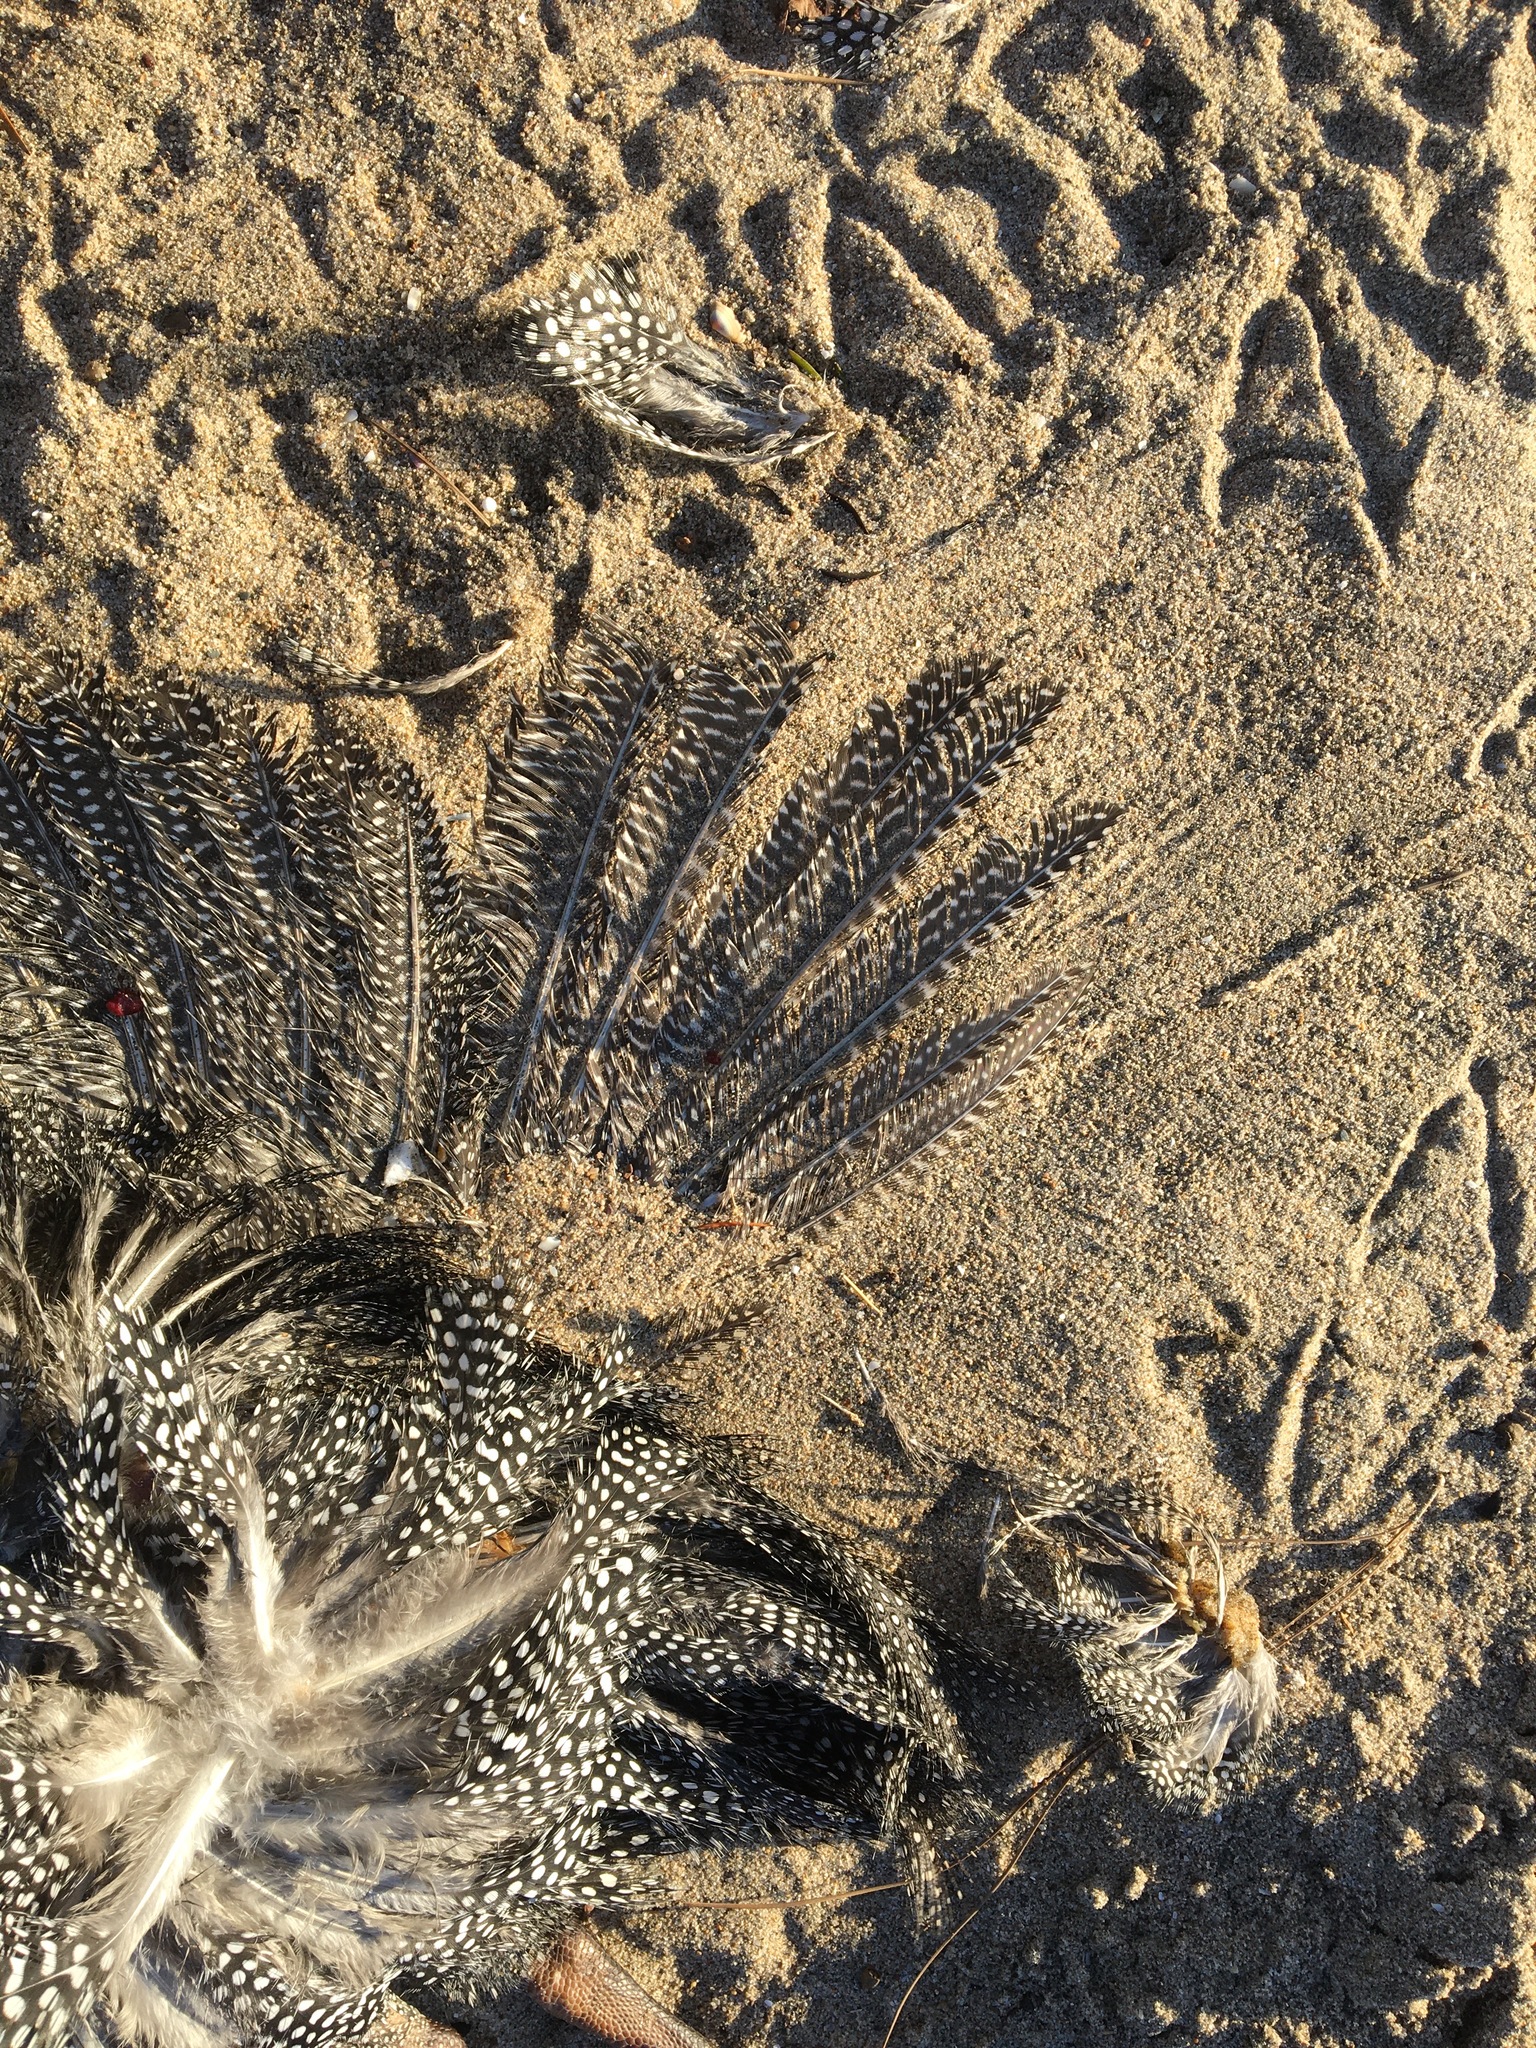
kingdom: Animalia
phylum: Chordata
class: Aves
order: Galliformes
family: Numididae
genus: Numida
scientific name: Numida meleagris
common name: Helmeted guineafowl
